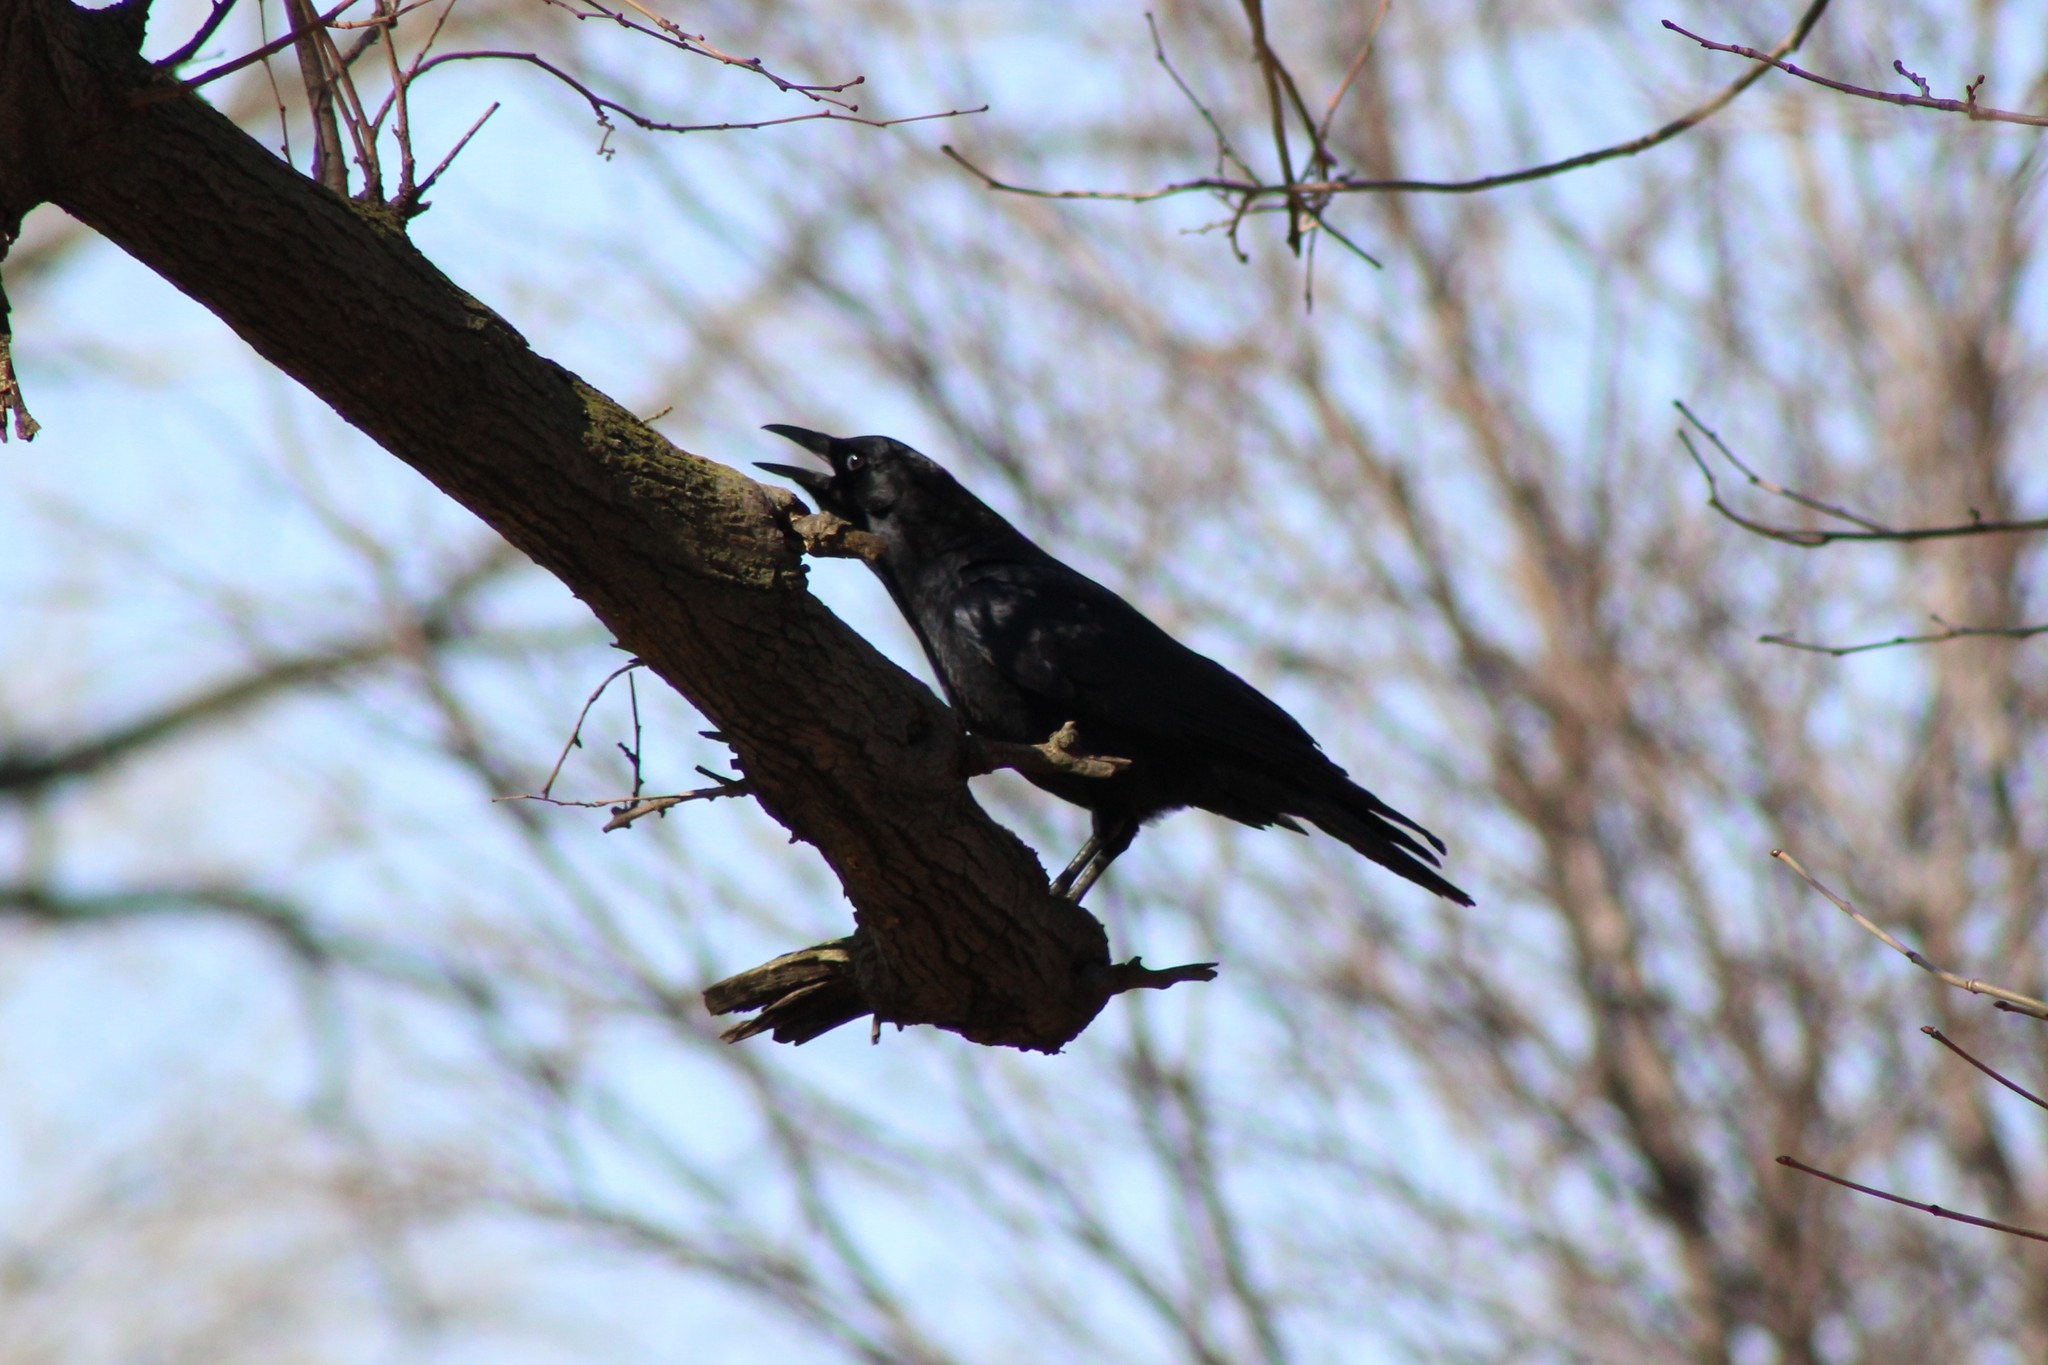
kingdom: Animalia
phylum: Chordata
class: Aves
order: Passeriformes
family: Corvidae
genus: Corvus
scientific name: Corvus brachyrhynchos
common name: American crow
